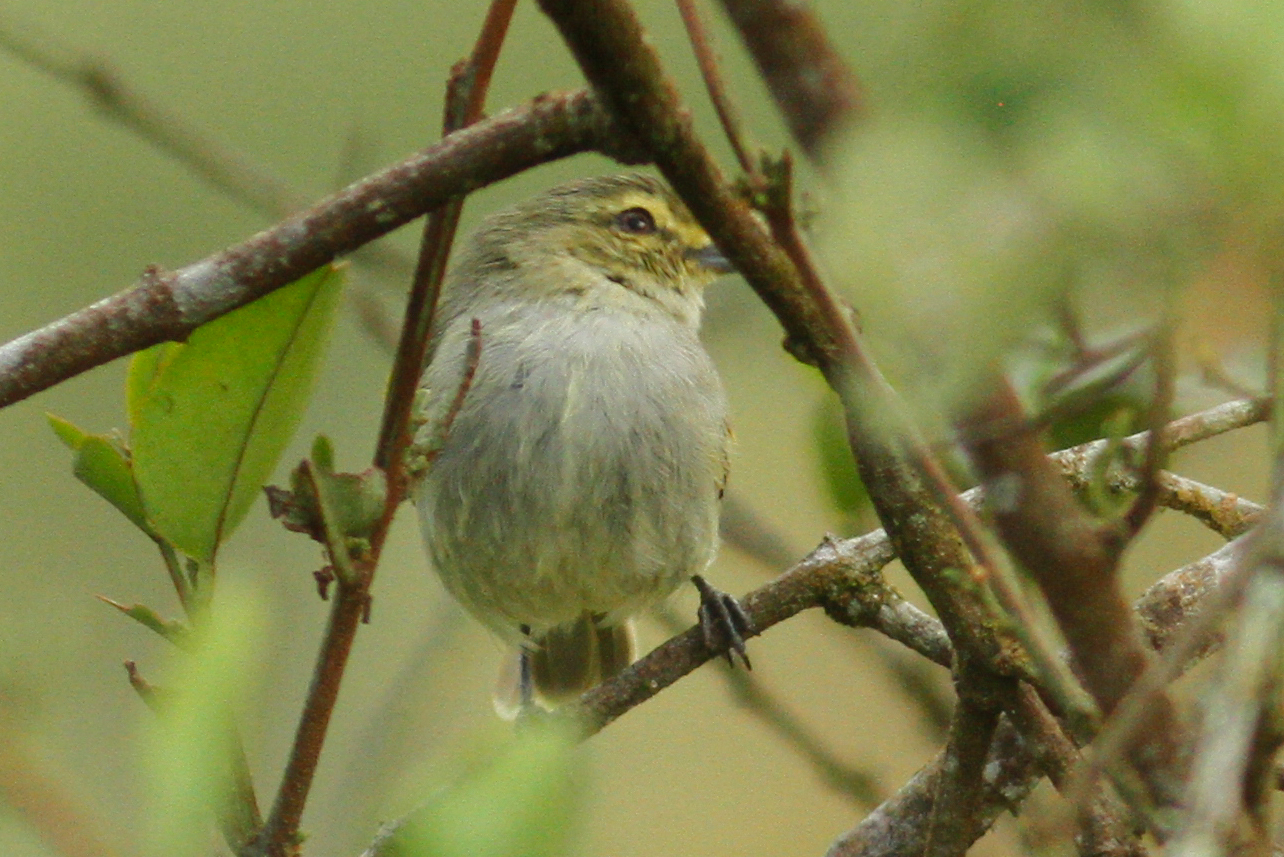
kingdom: Animalia
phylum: Chordata
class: Aves
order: Passeriformes
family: Tyrannidae
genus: Zimmerius
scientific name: Zimmerius chrysops
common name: Golden-faced tyrannulet
